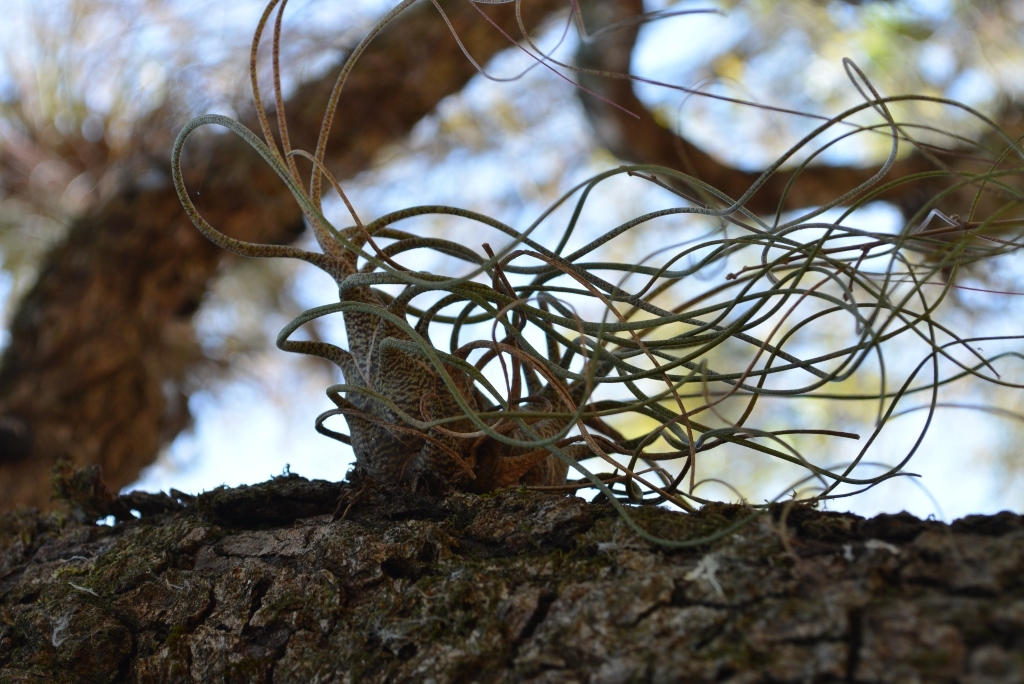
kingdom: Plantae
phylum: Tracheophyta
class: Liliopsida
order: Poales
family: Bromeliaceae
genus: Tillandsia
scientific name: Tillandsia butzii
